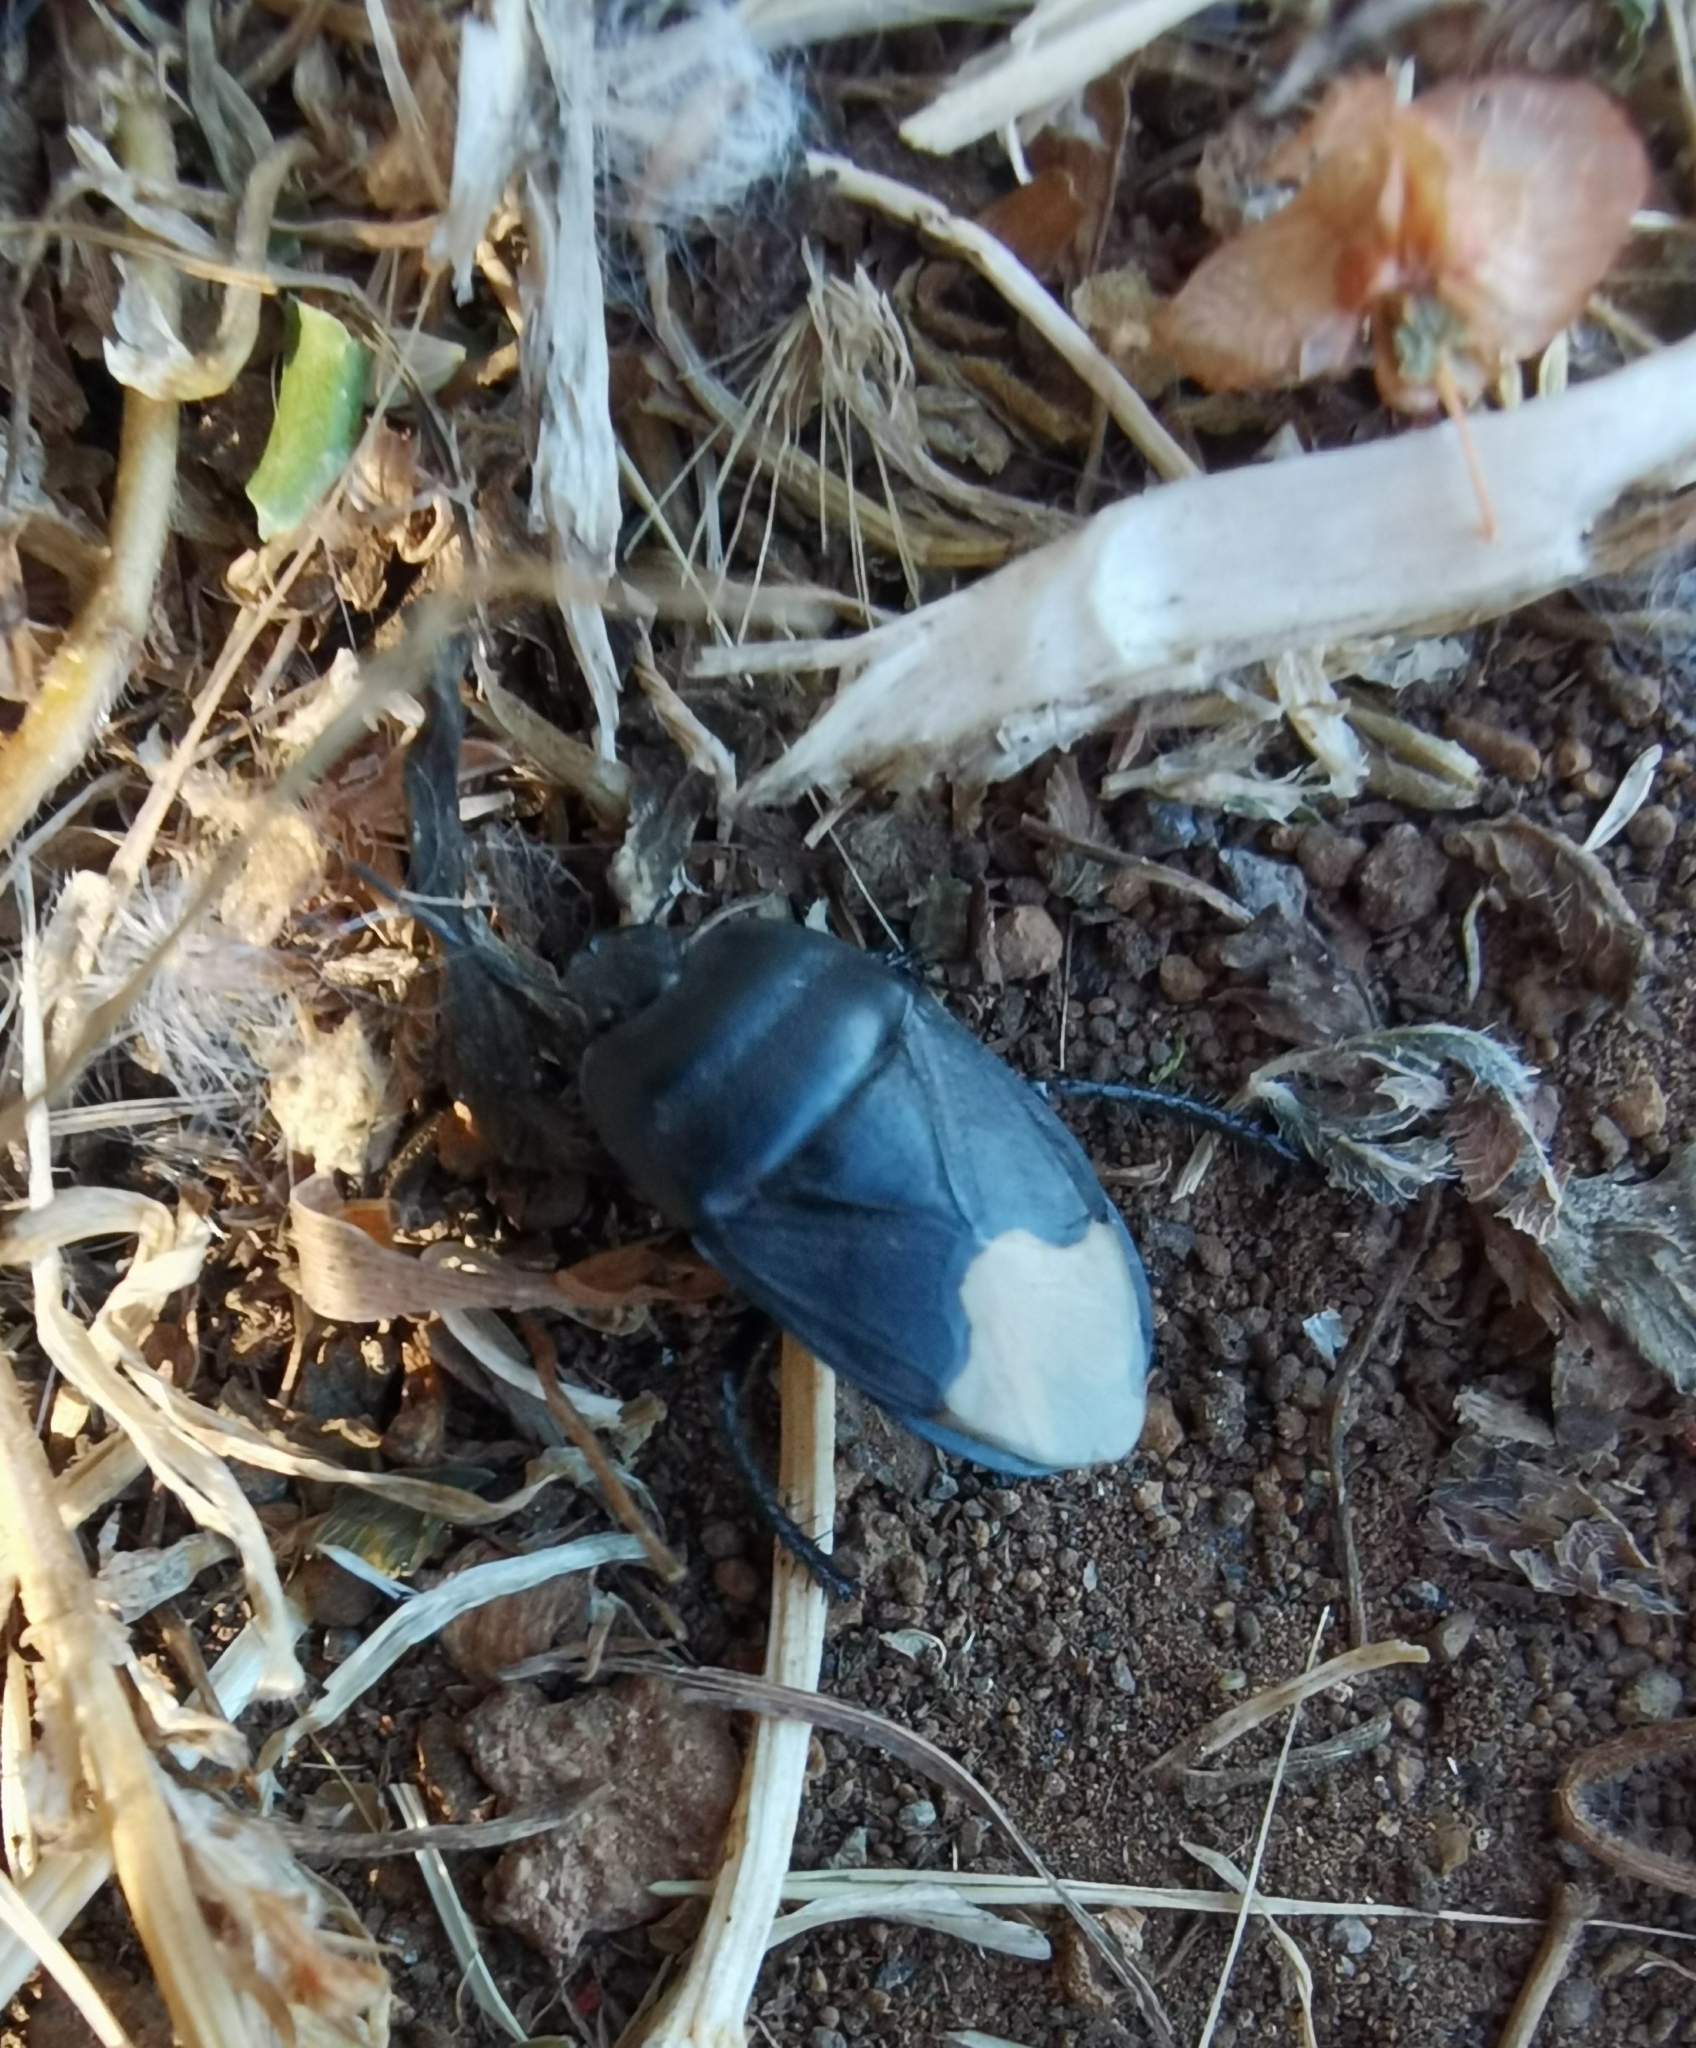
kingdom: Animalia
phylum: Arthropoda
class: Insecta
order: Hemiptera
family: Cydnidae
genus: Cydnus
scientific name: Cydnus aterrimus
